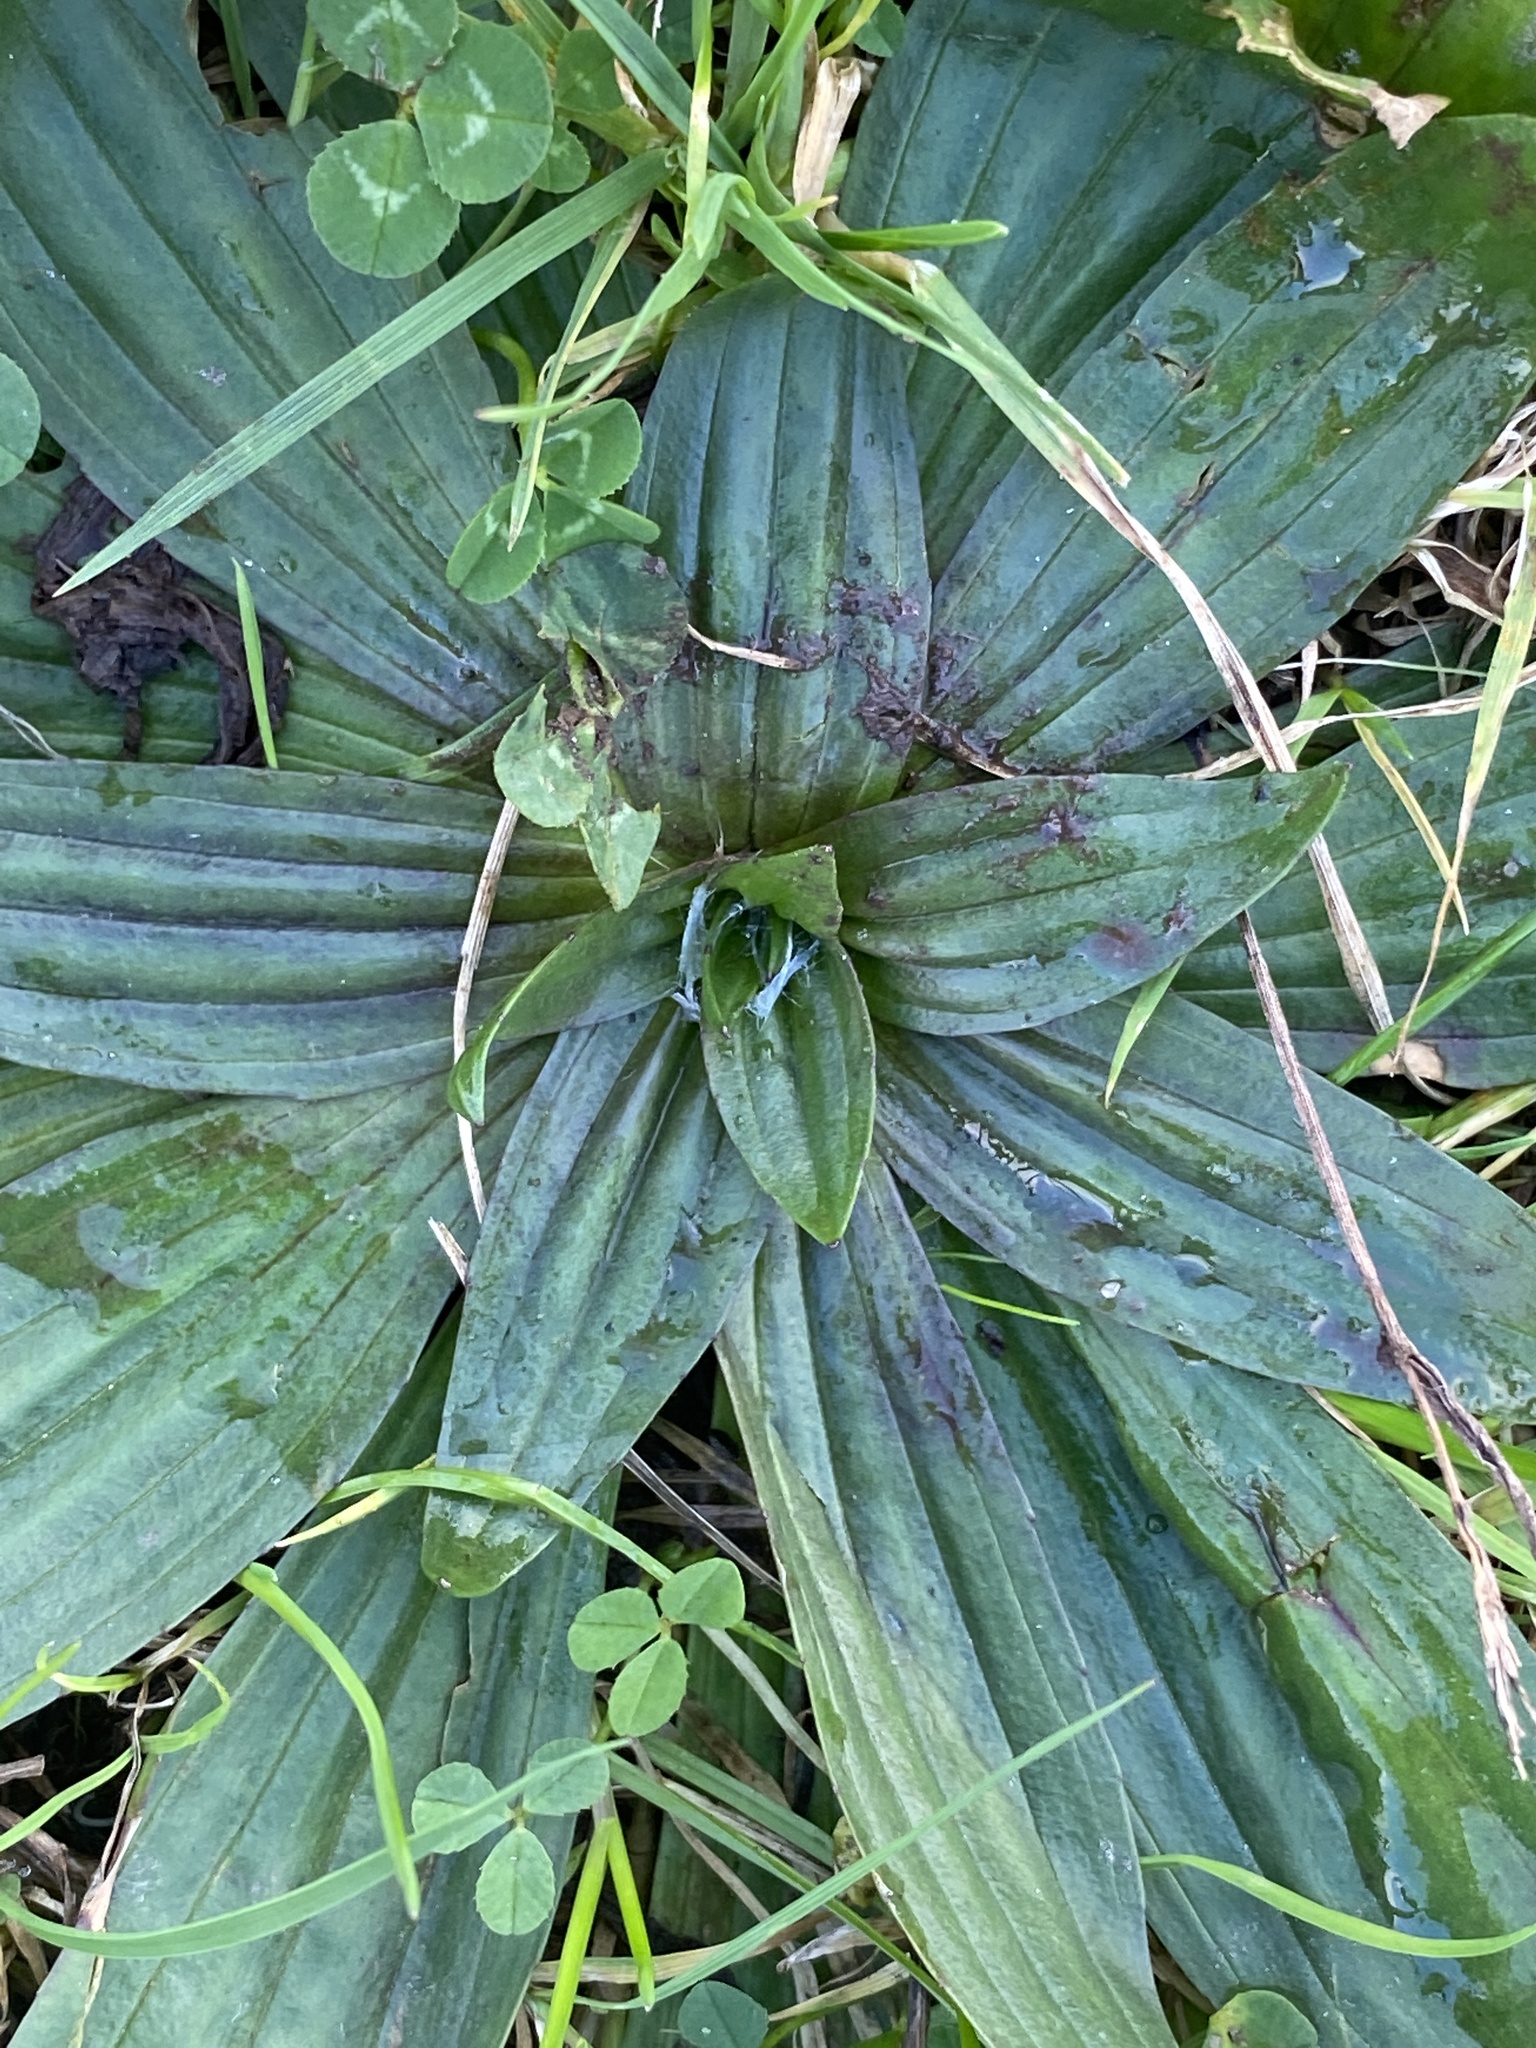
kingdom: Plantae
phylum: Tracheophyta
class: Magnoliopsida
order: Lamiales
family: Plantaginaceae
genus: Plantago
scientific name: Plantago lanceolata
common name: Ribwort plantain
